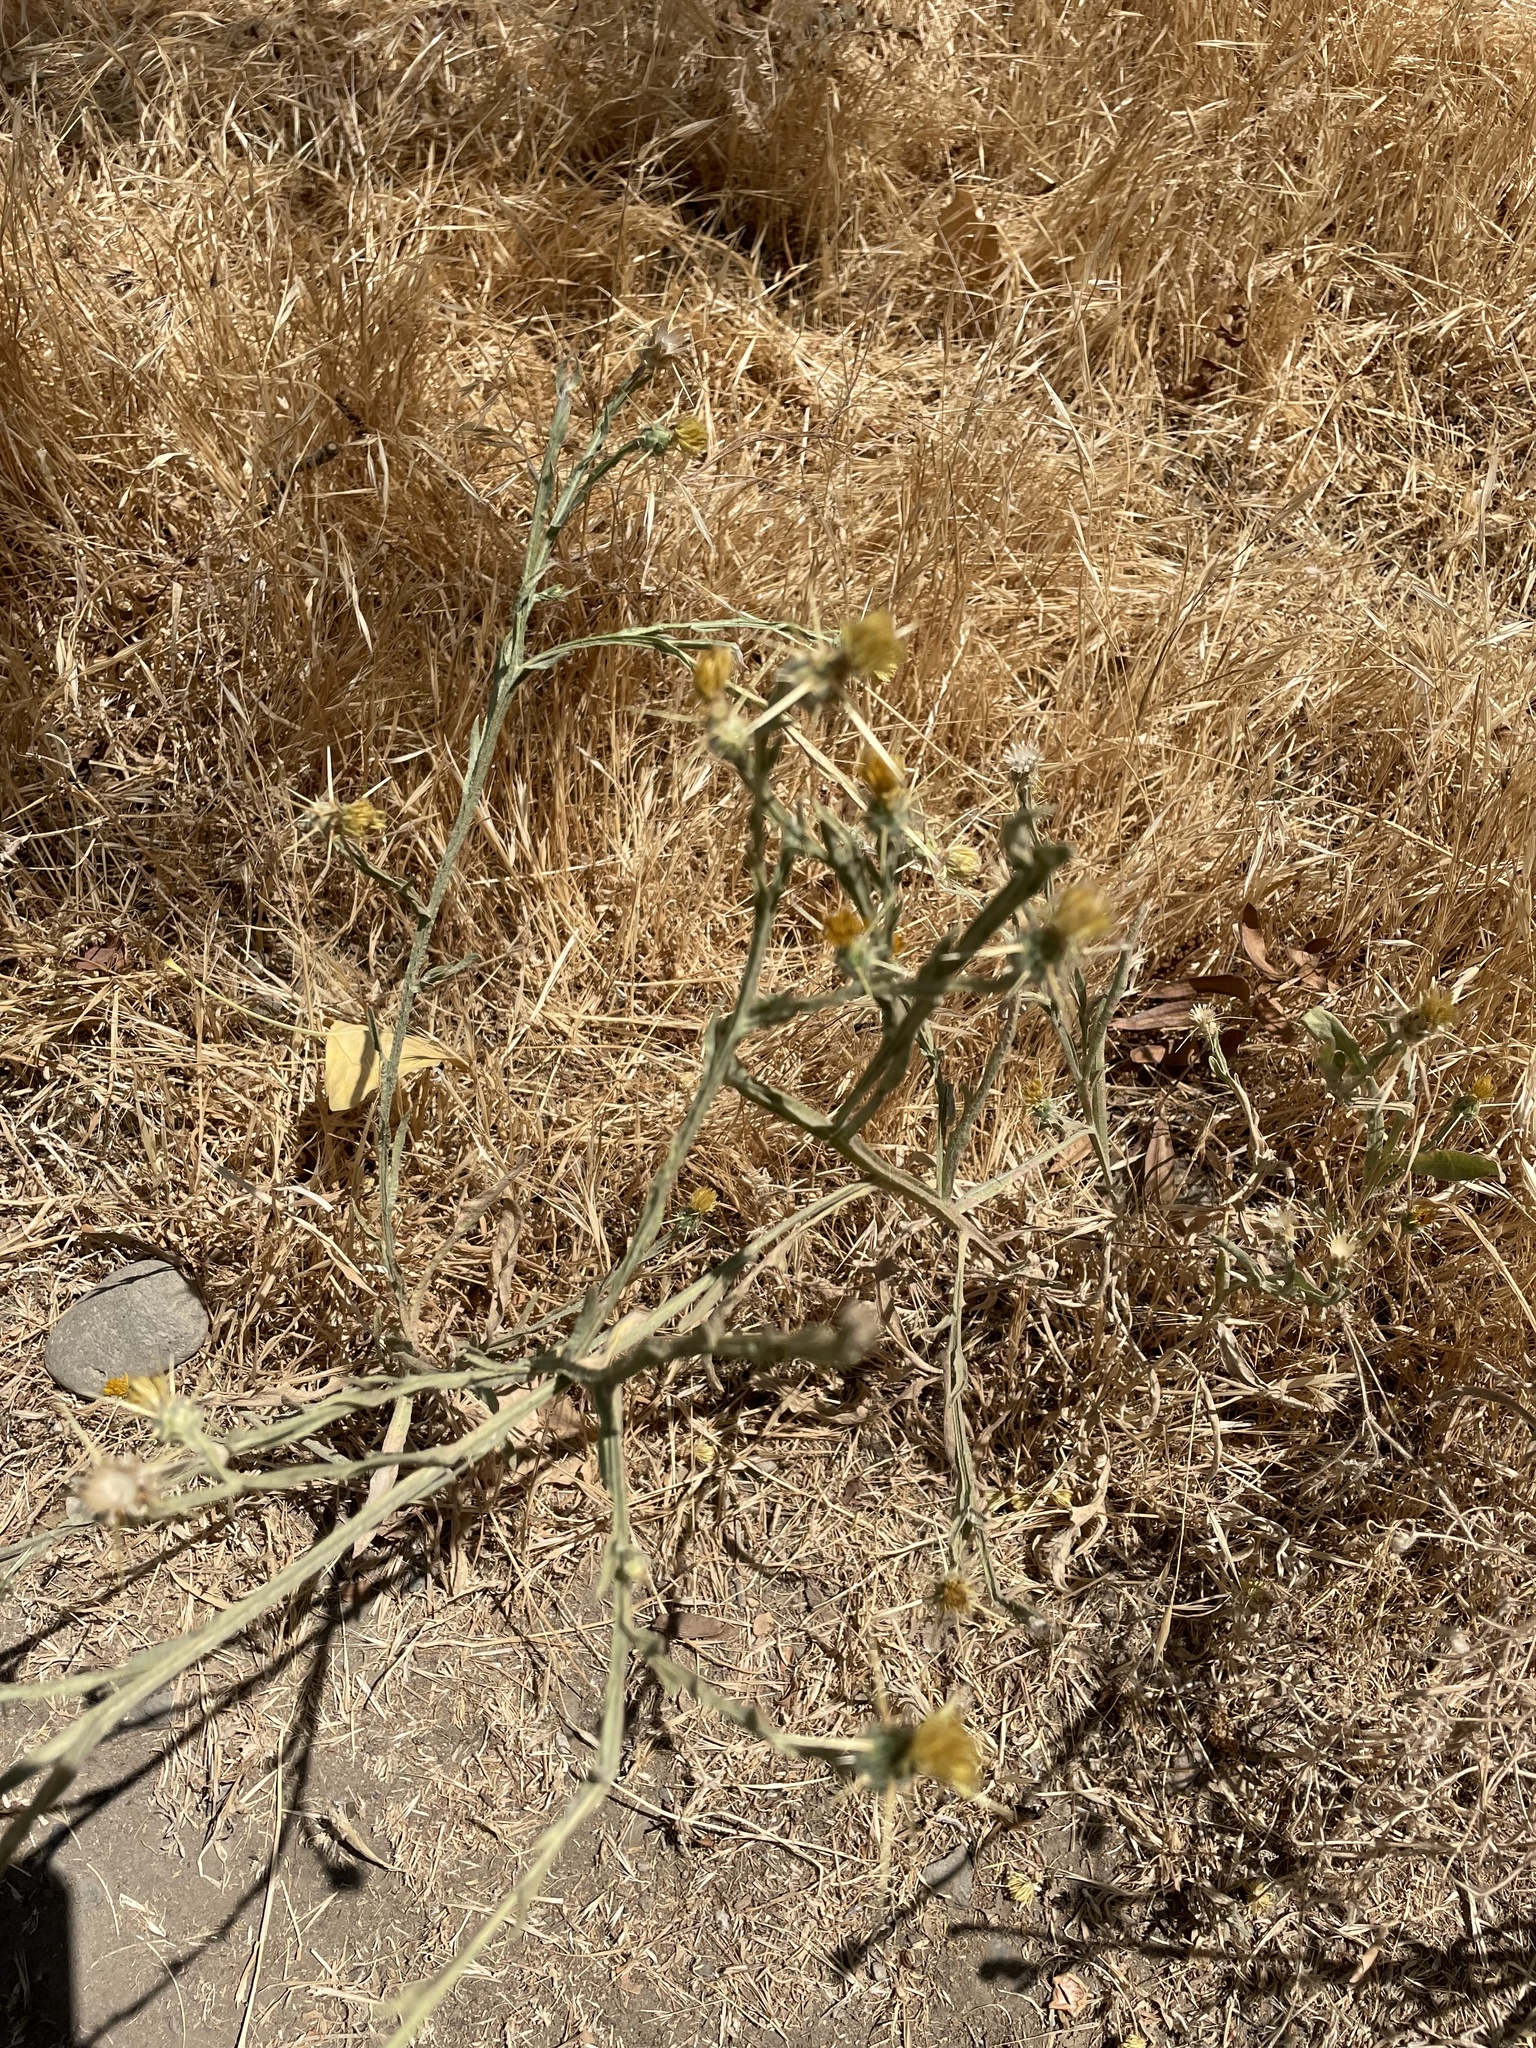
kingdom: Plantae
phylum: Tracheophyta
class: Magnoliopsida
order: Asterales
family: Asteraceae
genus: Centaurea
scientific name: Centaurea solstitialis
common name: Yellow star-thistle
